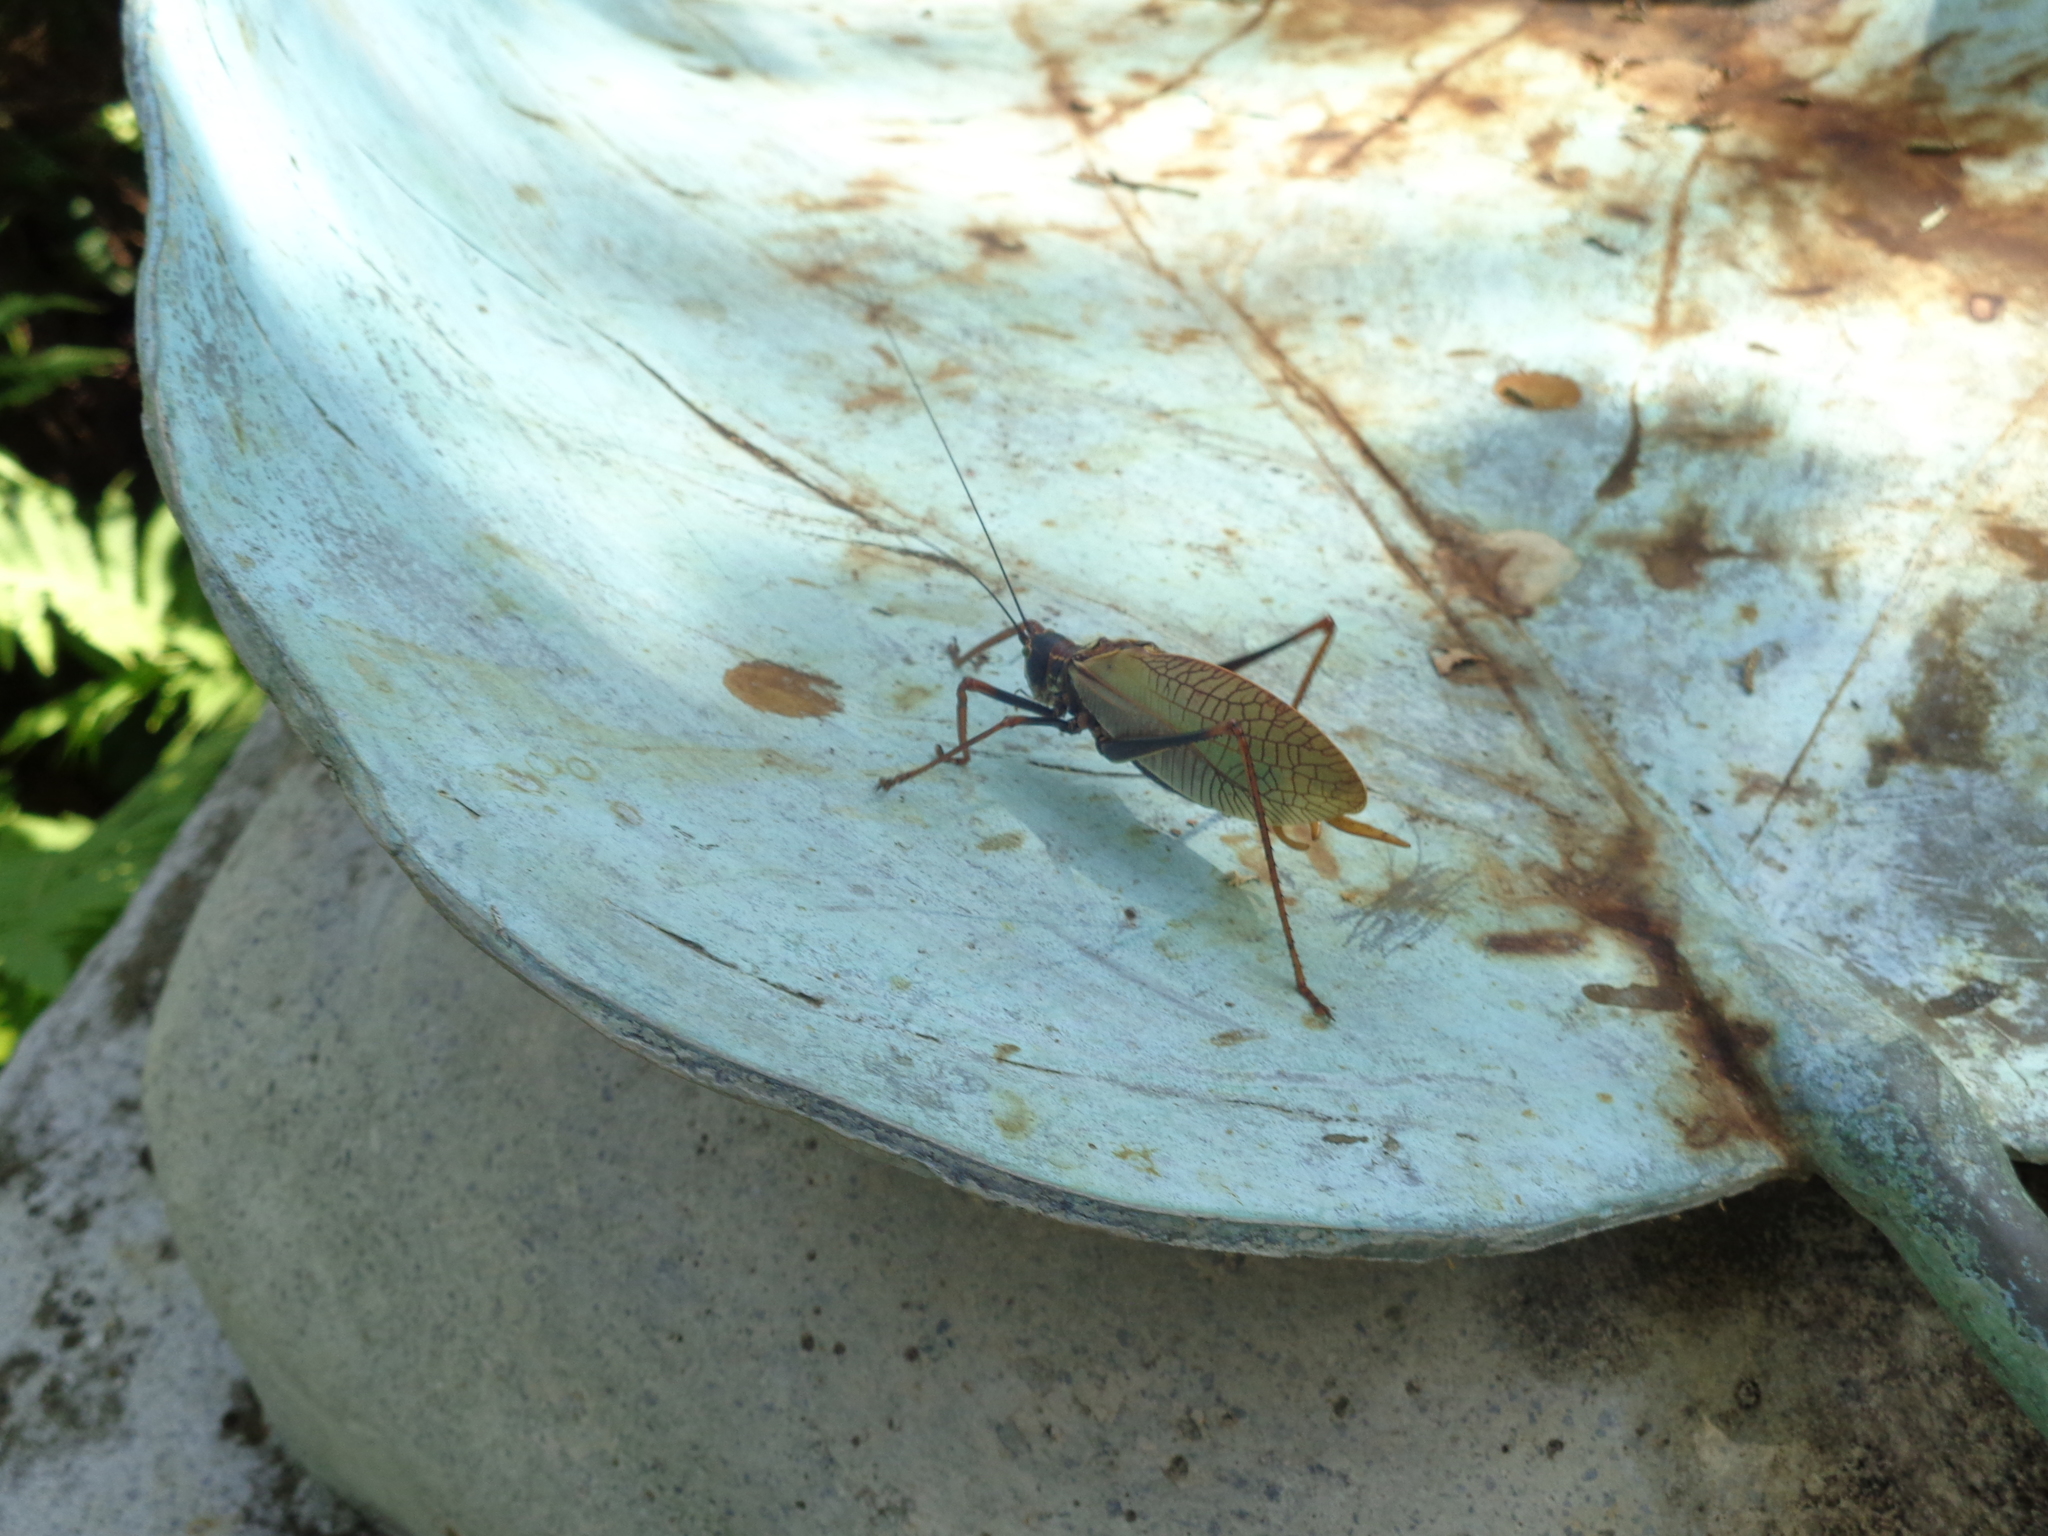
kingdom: Animalia
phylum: Arthropoda
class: Insecta
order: Orthoptera
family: Tettigoniidae
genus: Pterophylla
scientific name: Pterophylla beltrani
